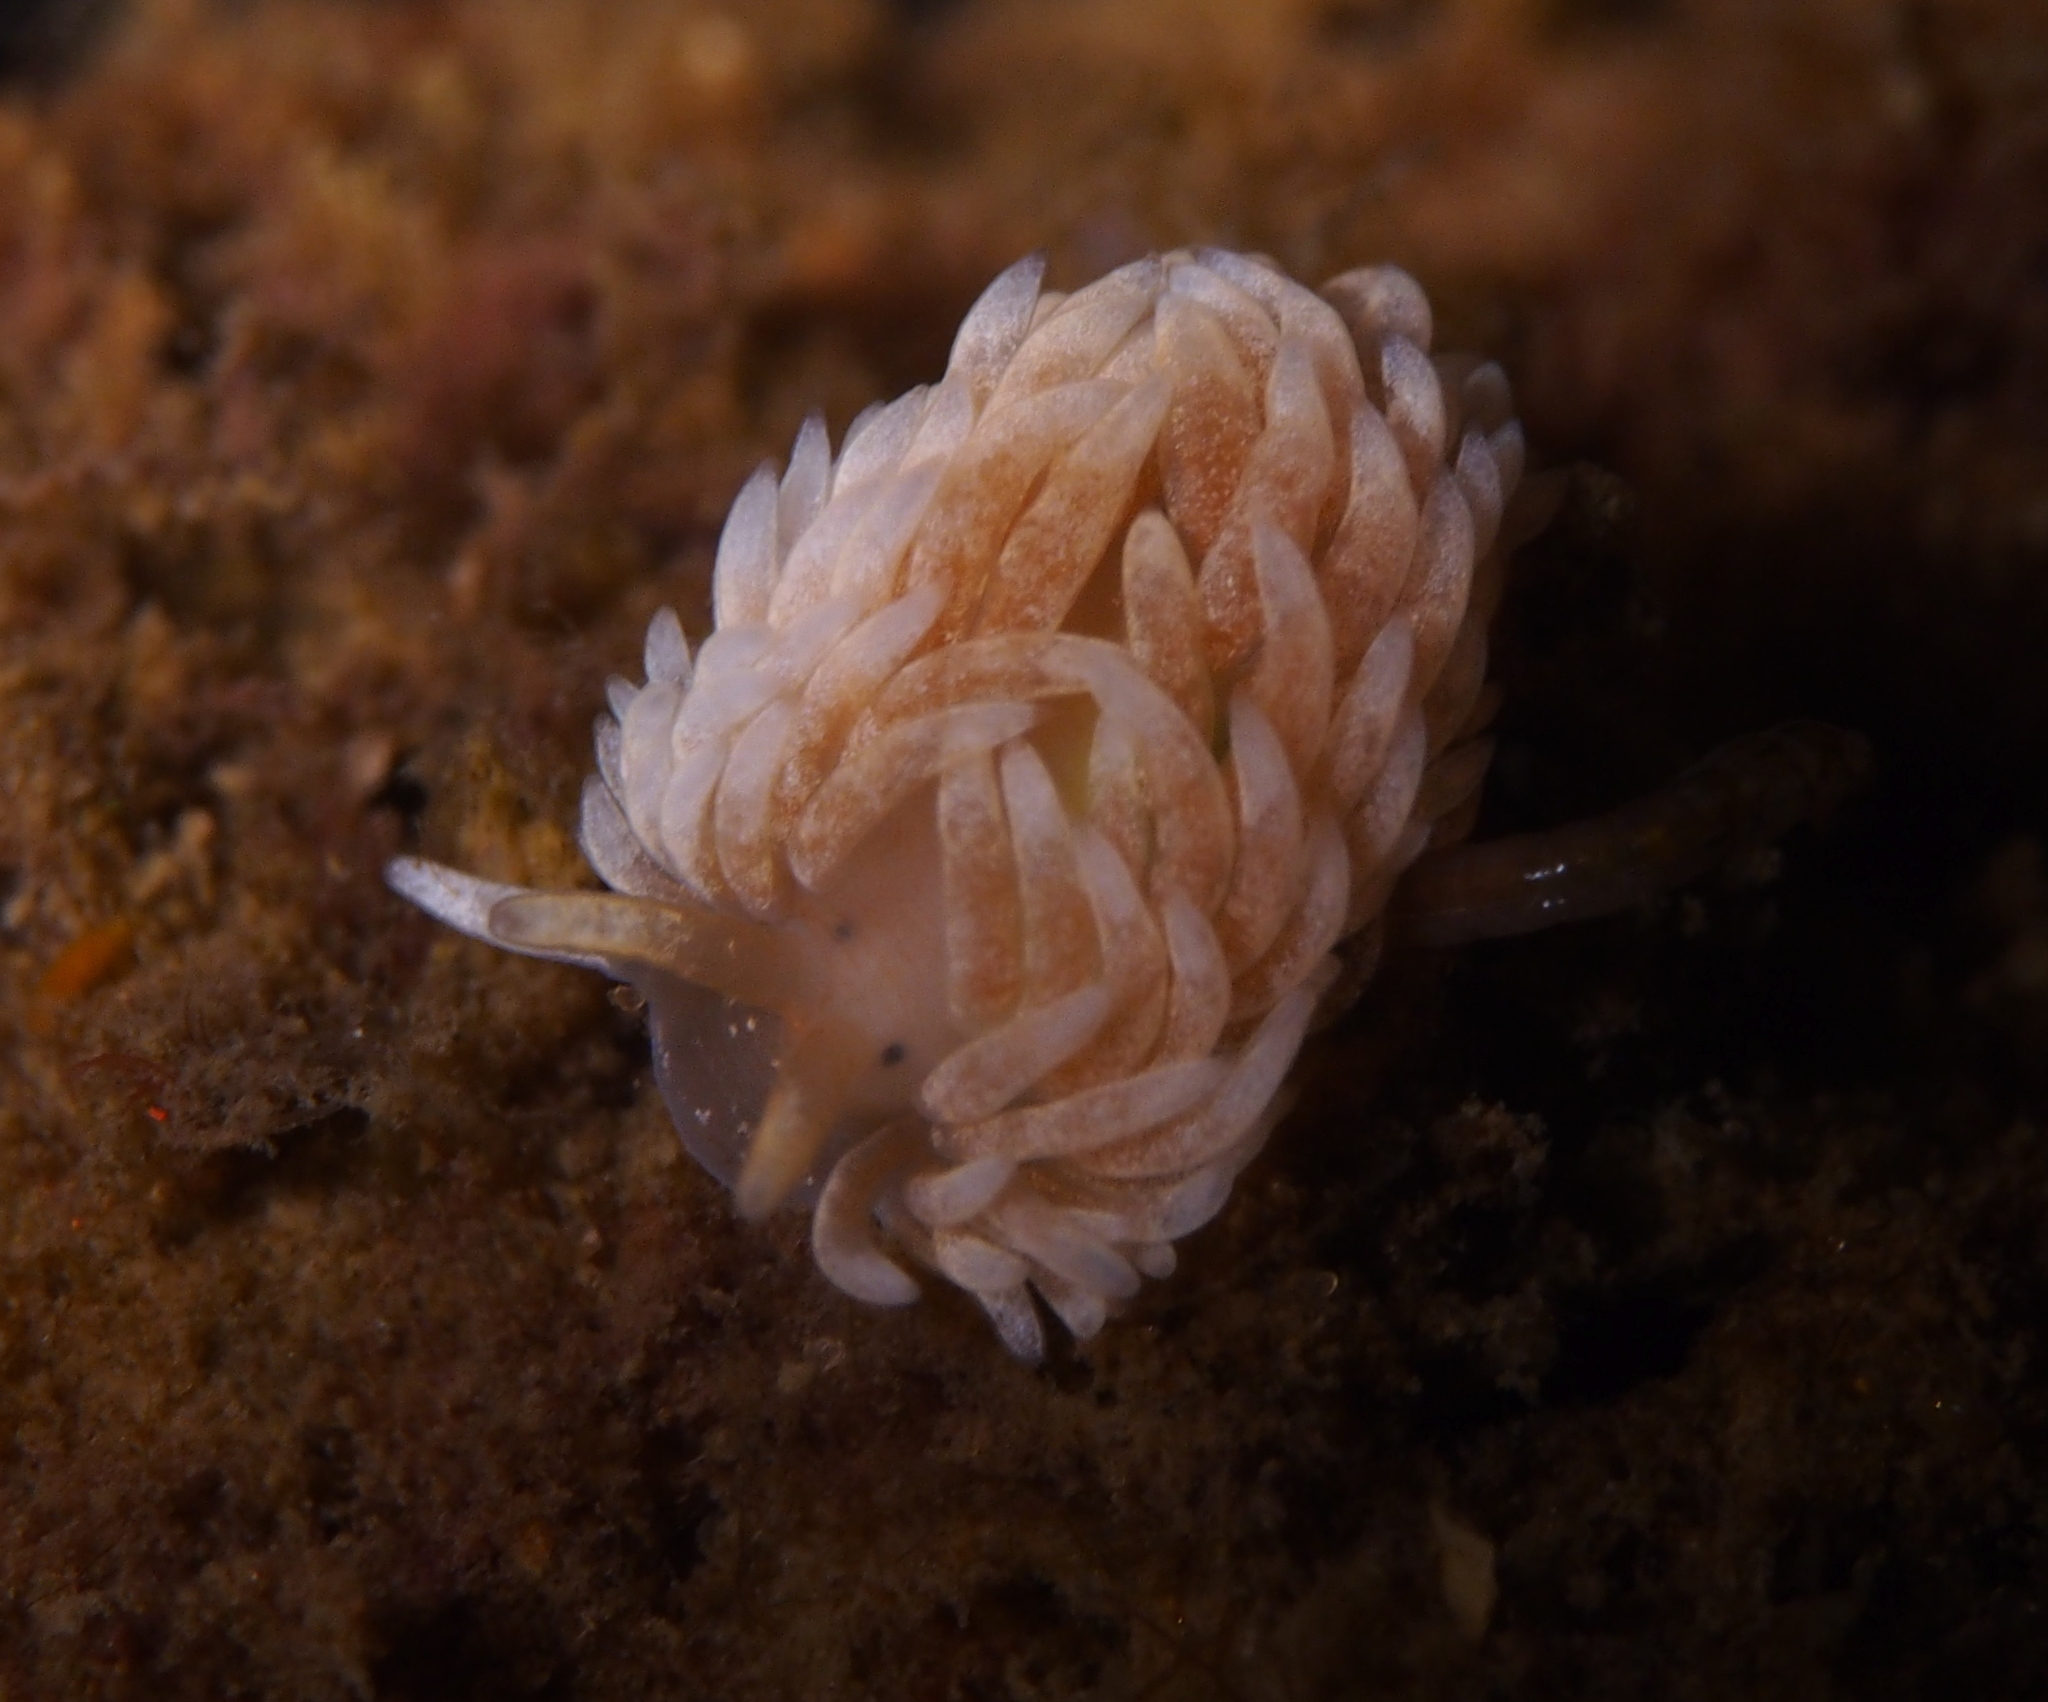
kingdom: Animalia
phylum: Mollusca
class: Gastropoda
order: Nudibranchia
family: Aeolidiidae
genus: Aeolidiella
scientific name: Aeolidiella glauca
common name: Orange-brown aeolid
